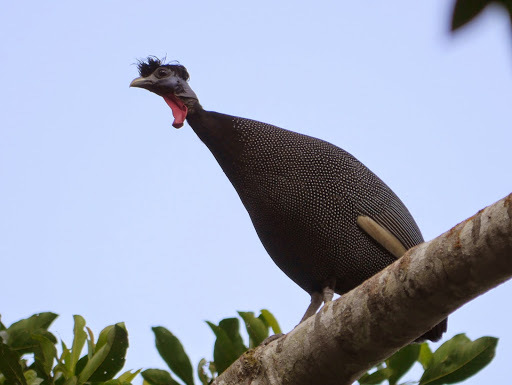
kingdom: Animalia
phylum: Chordata
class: Aves
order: Galliformes
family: Numididae
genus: Guttera
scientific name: Guttera pucherani
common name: Crested guineafowl
